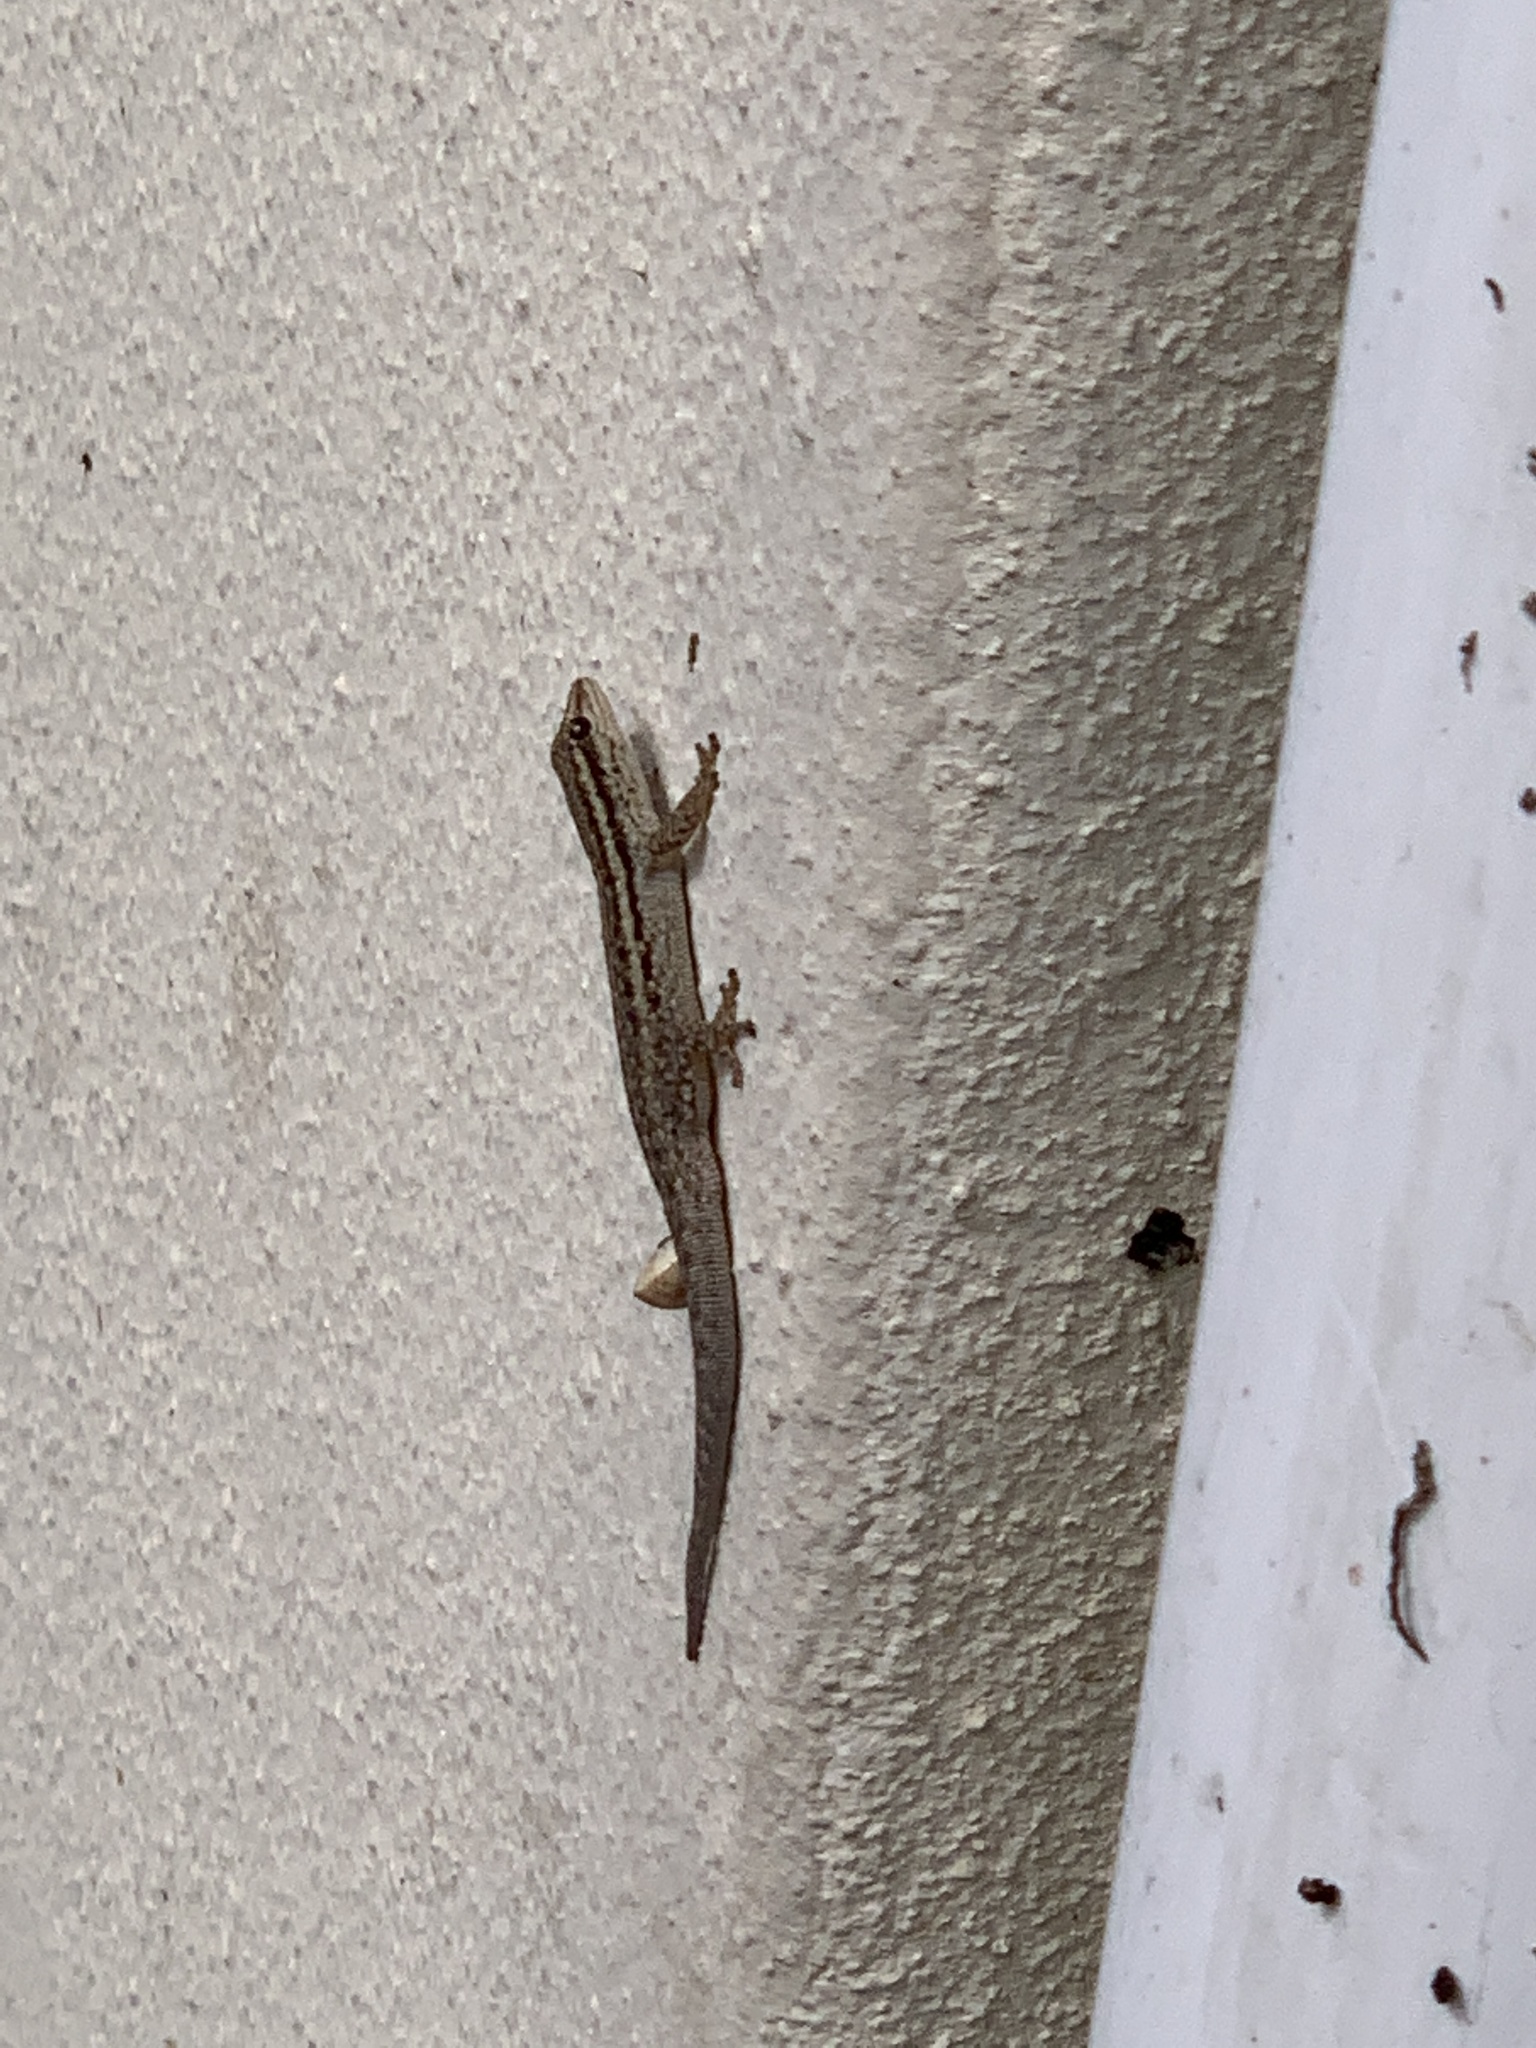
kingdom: Animalia
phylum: Chordata
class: Squamata
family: Gekkonidae
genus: Lygodactylus
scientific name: Lygodactylus capensis
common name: Cape dwarf gecko
